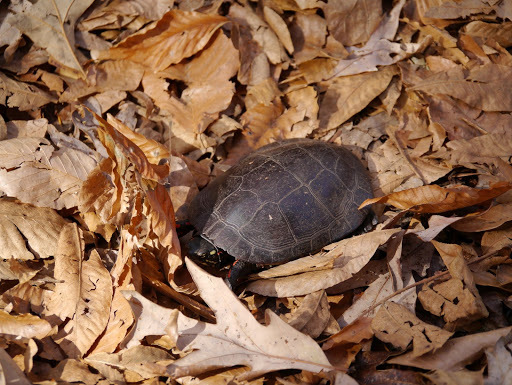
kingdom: Animalia
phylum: Chordata
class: Testudines
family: Emydidae
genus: Chrysemys
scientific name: Chrysemys picta
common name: Painted turtle
